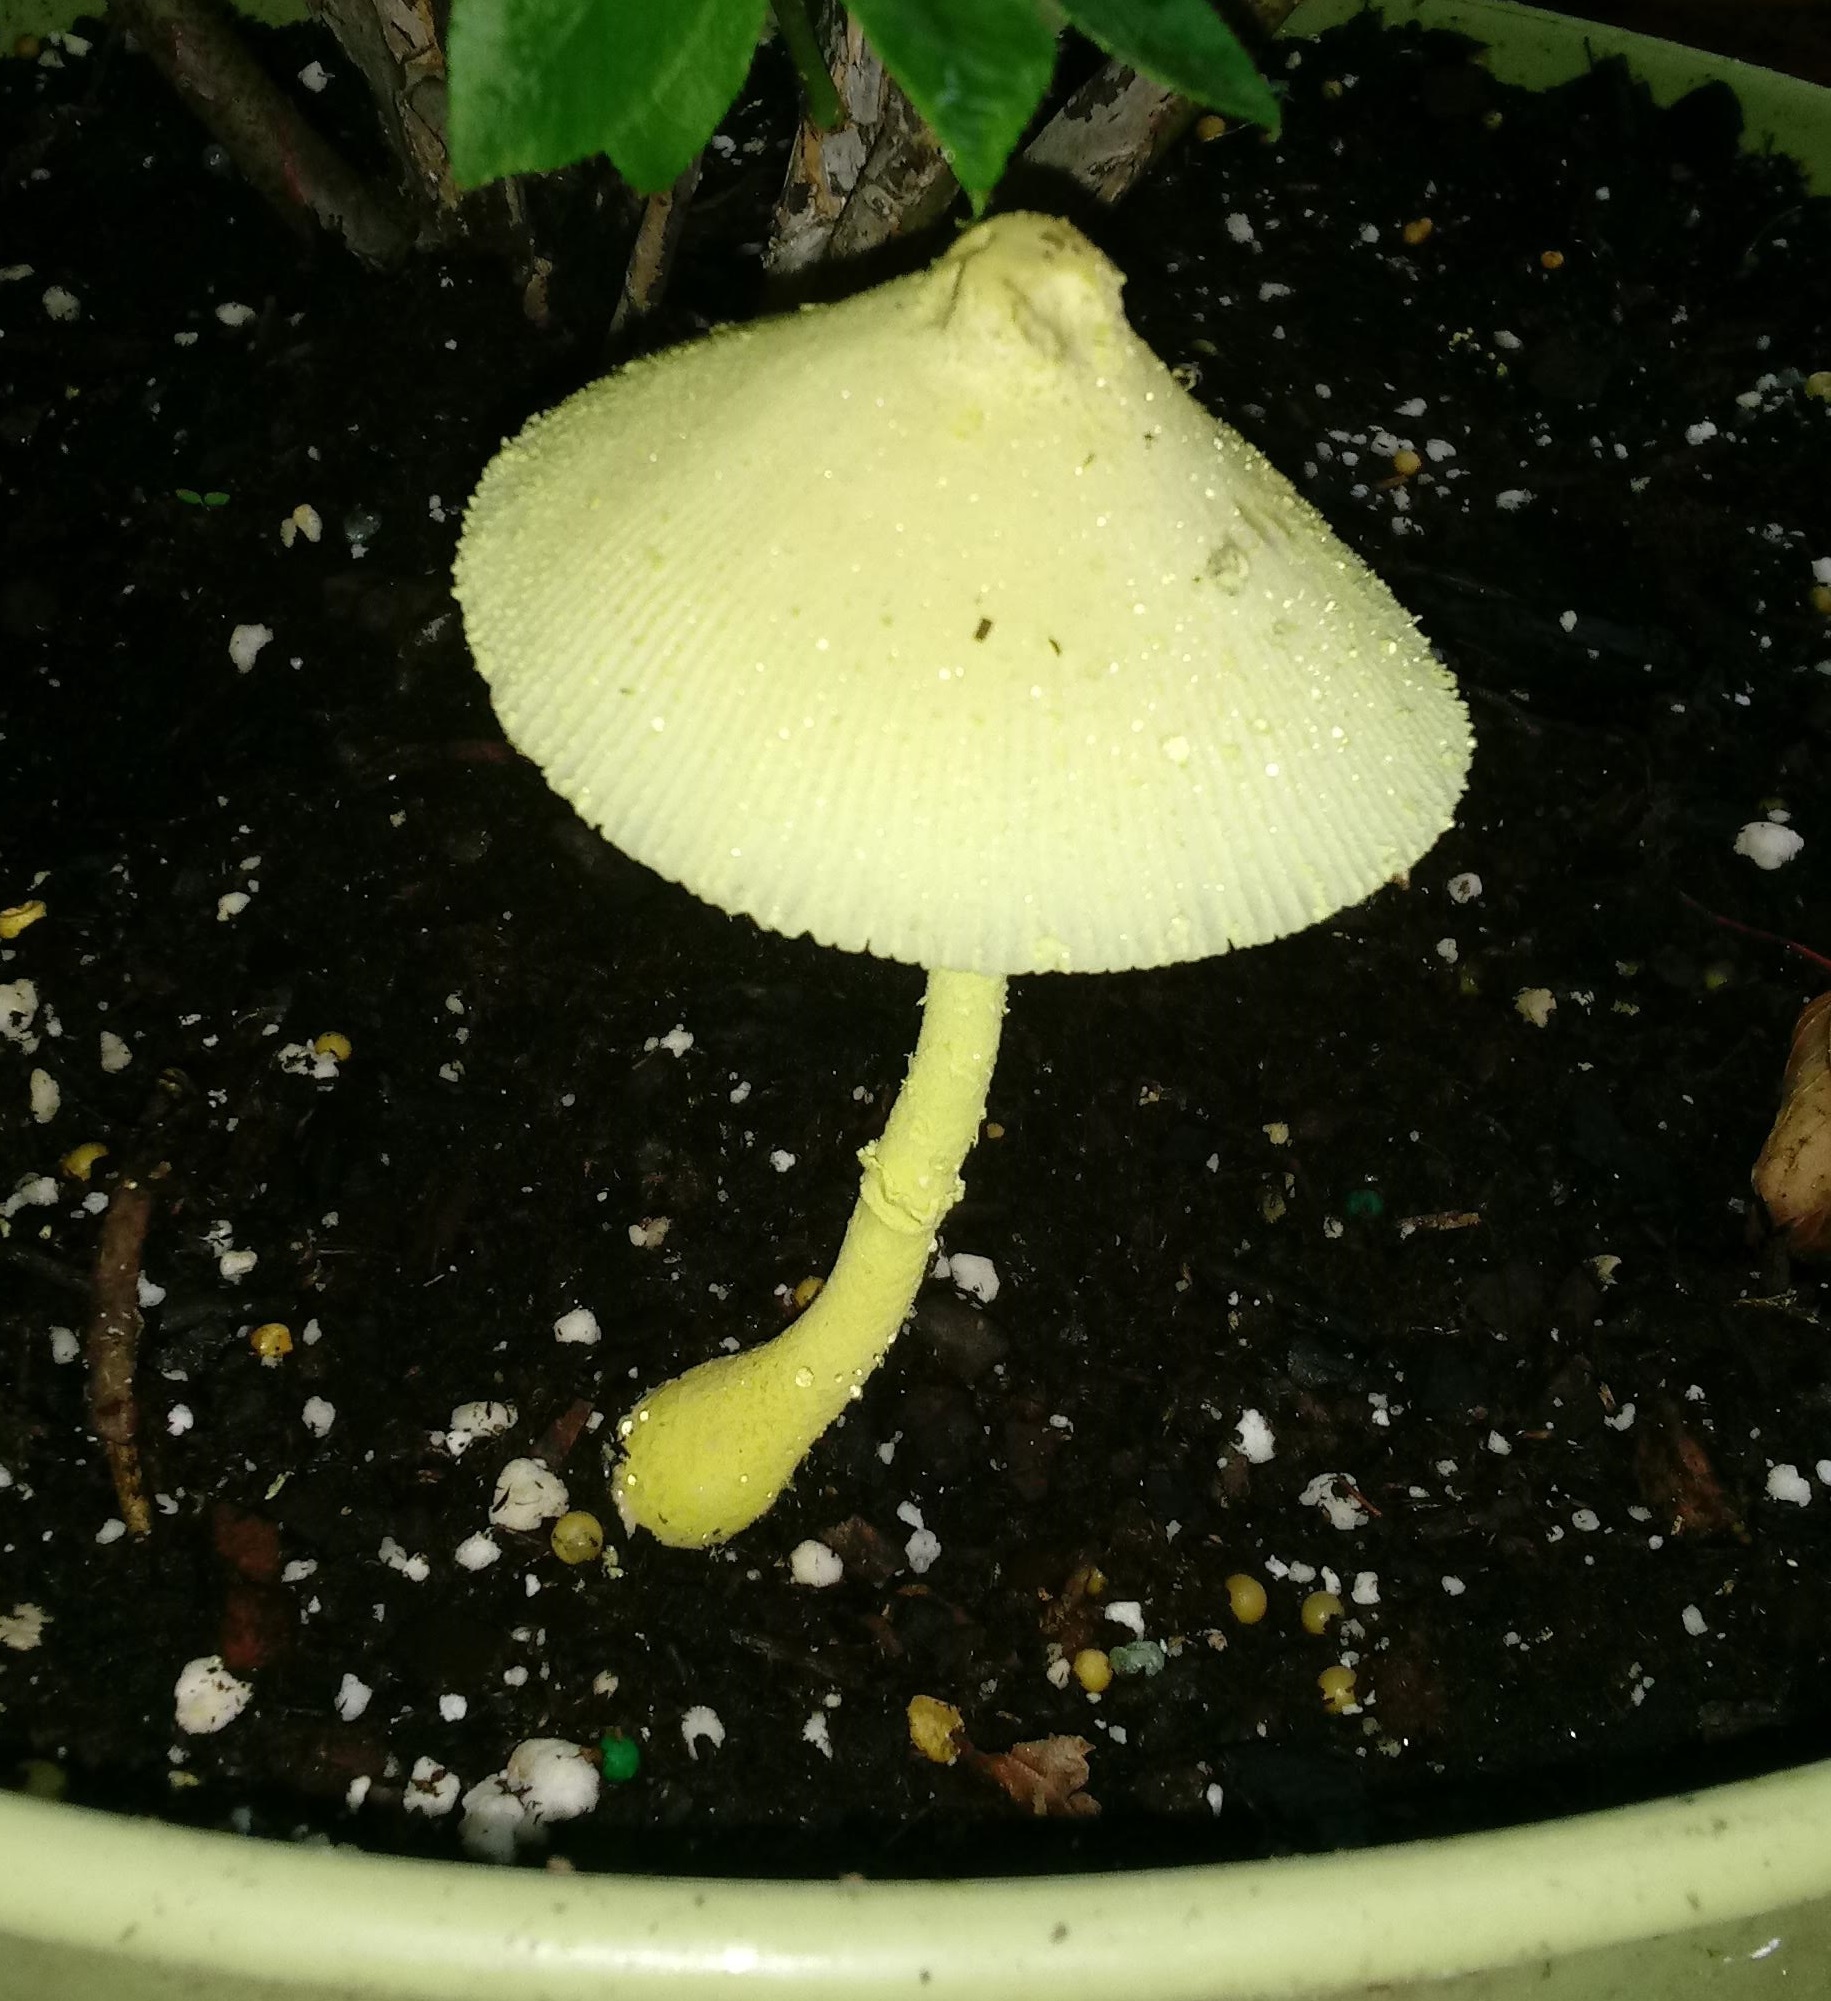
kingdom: Fungi
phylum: Basidiomycota
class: Agaricomycetes
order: Agaricales
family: Agaricaceae
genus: Leucocoprinus
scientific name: Leucocoprinus birnbaumii
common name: Plantpot dapperling
